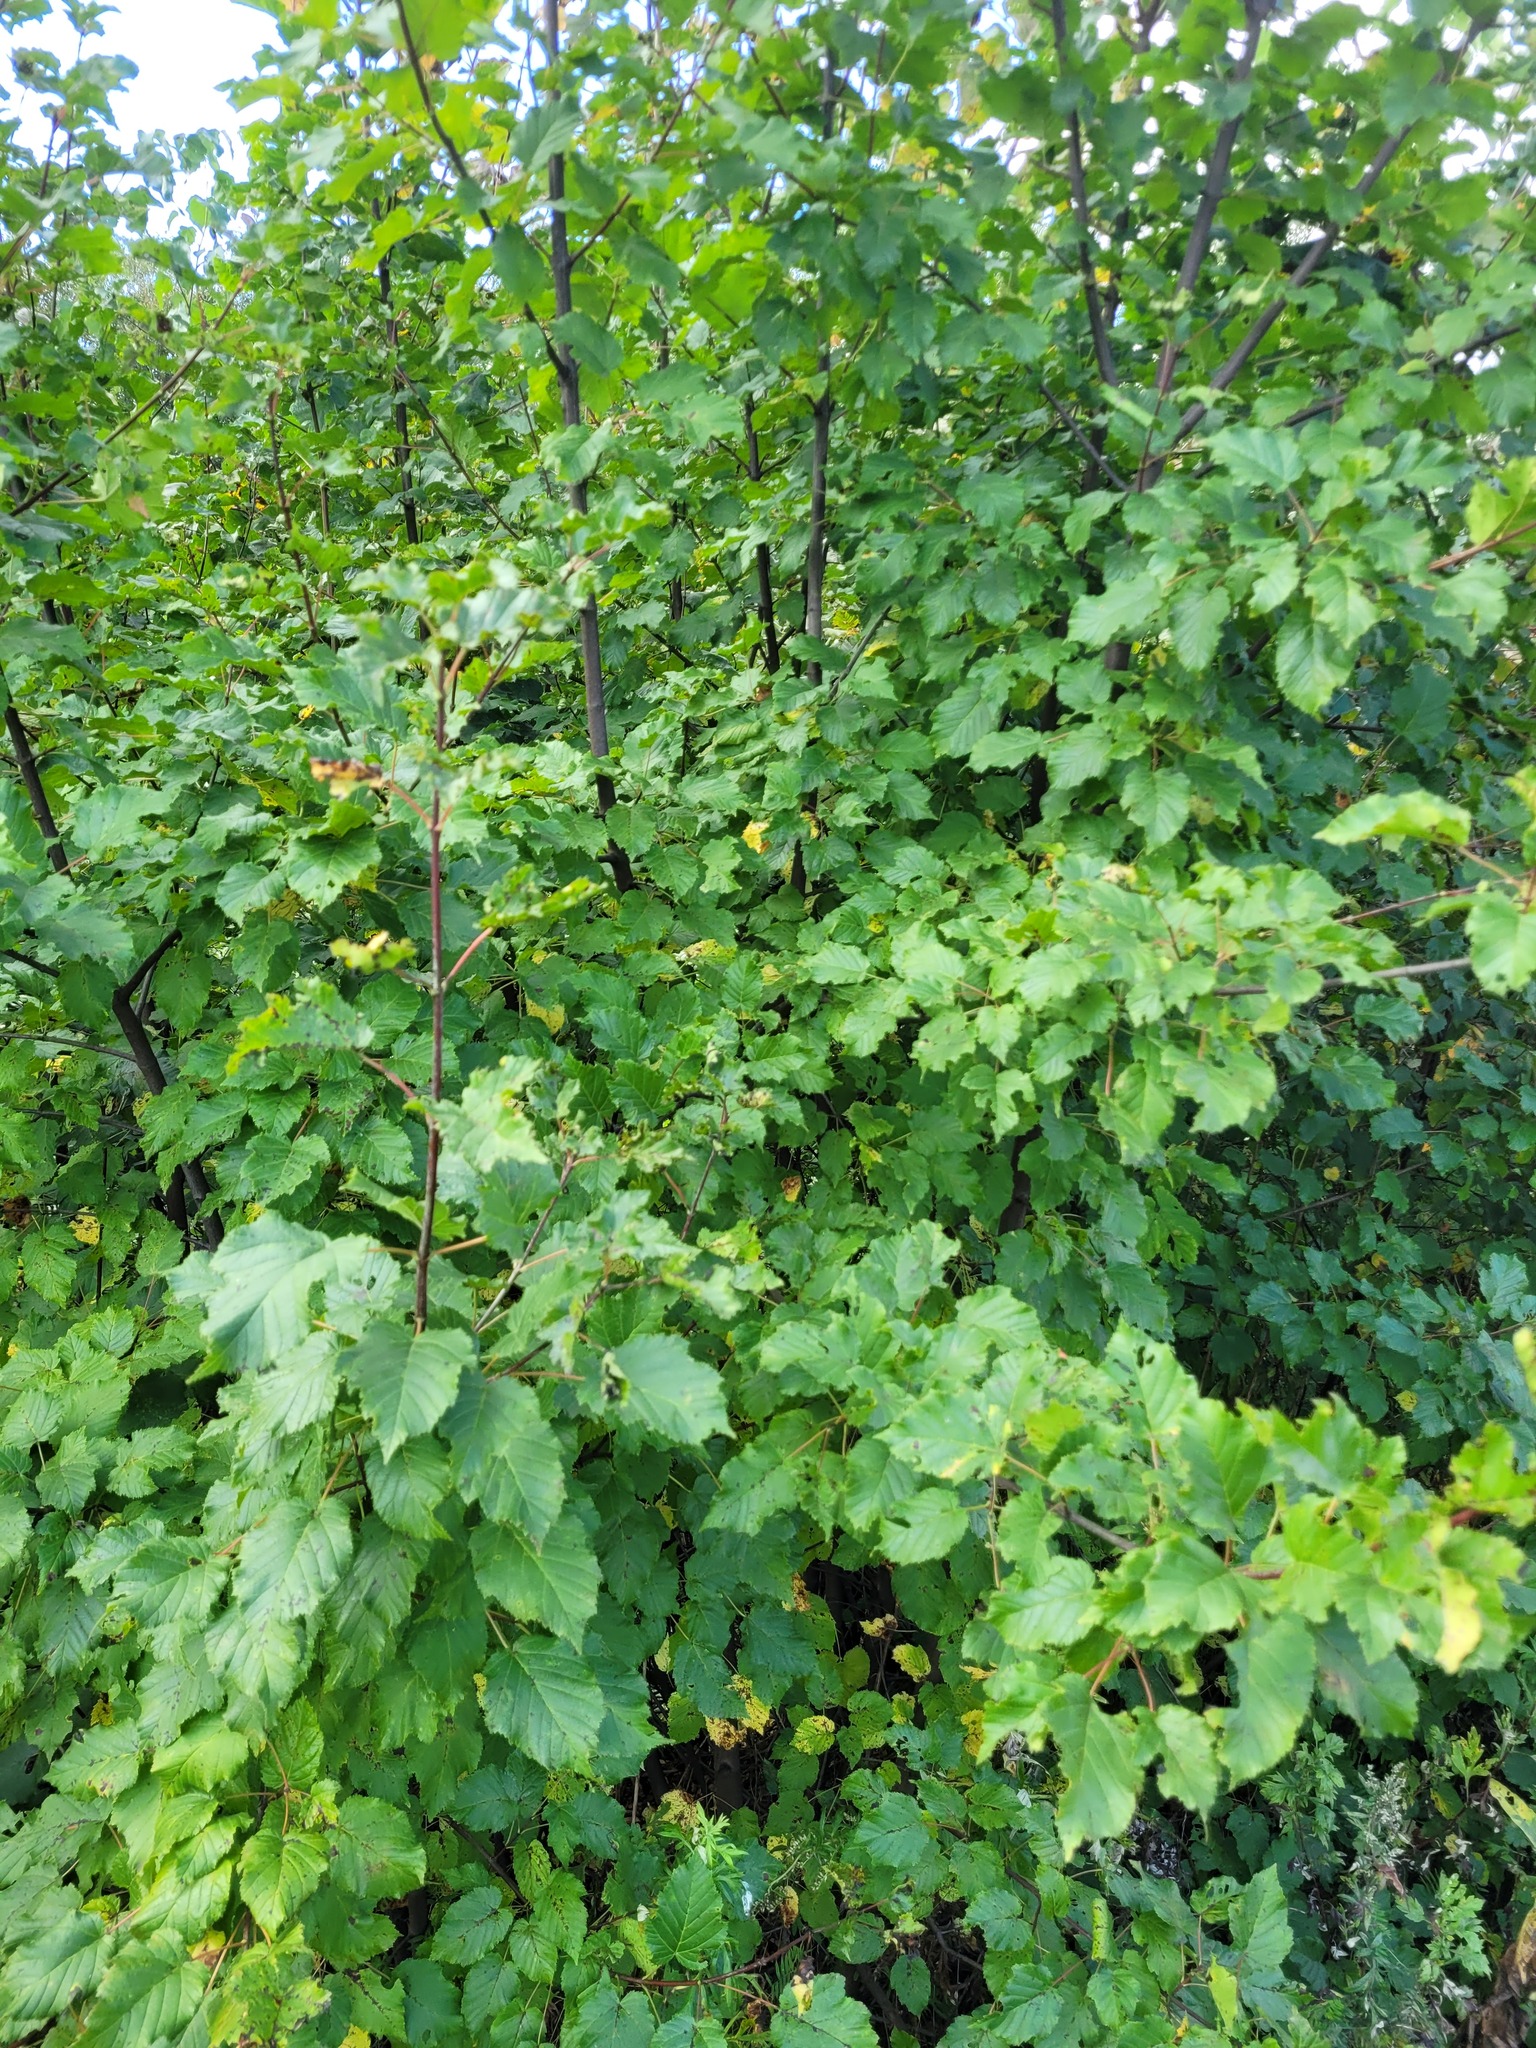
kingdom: Plantae
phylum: Tracheophyta
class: Magnoliopsida
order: Sapindales
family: Sapindaceae
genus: Acer
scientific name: Acer tataricum
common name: Tartar maple
